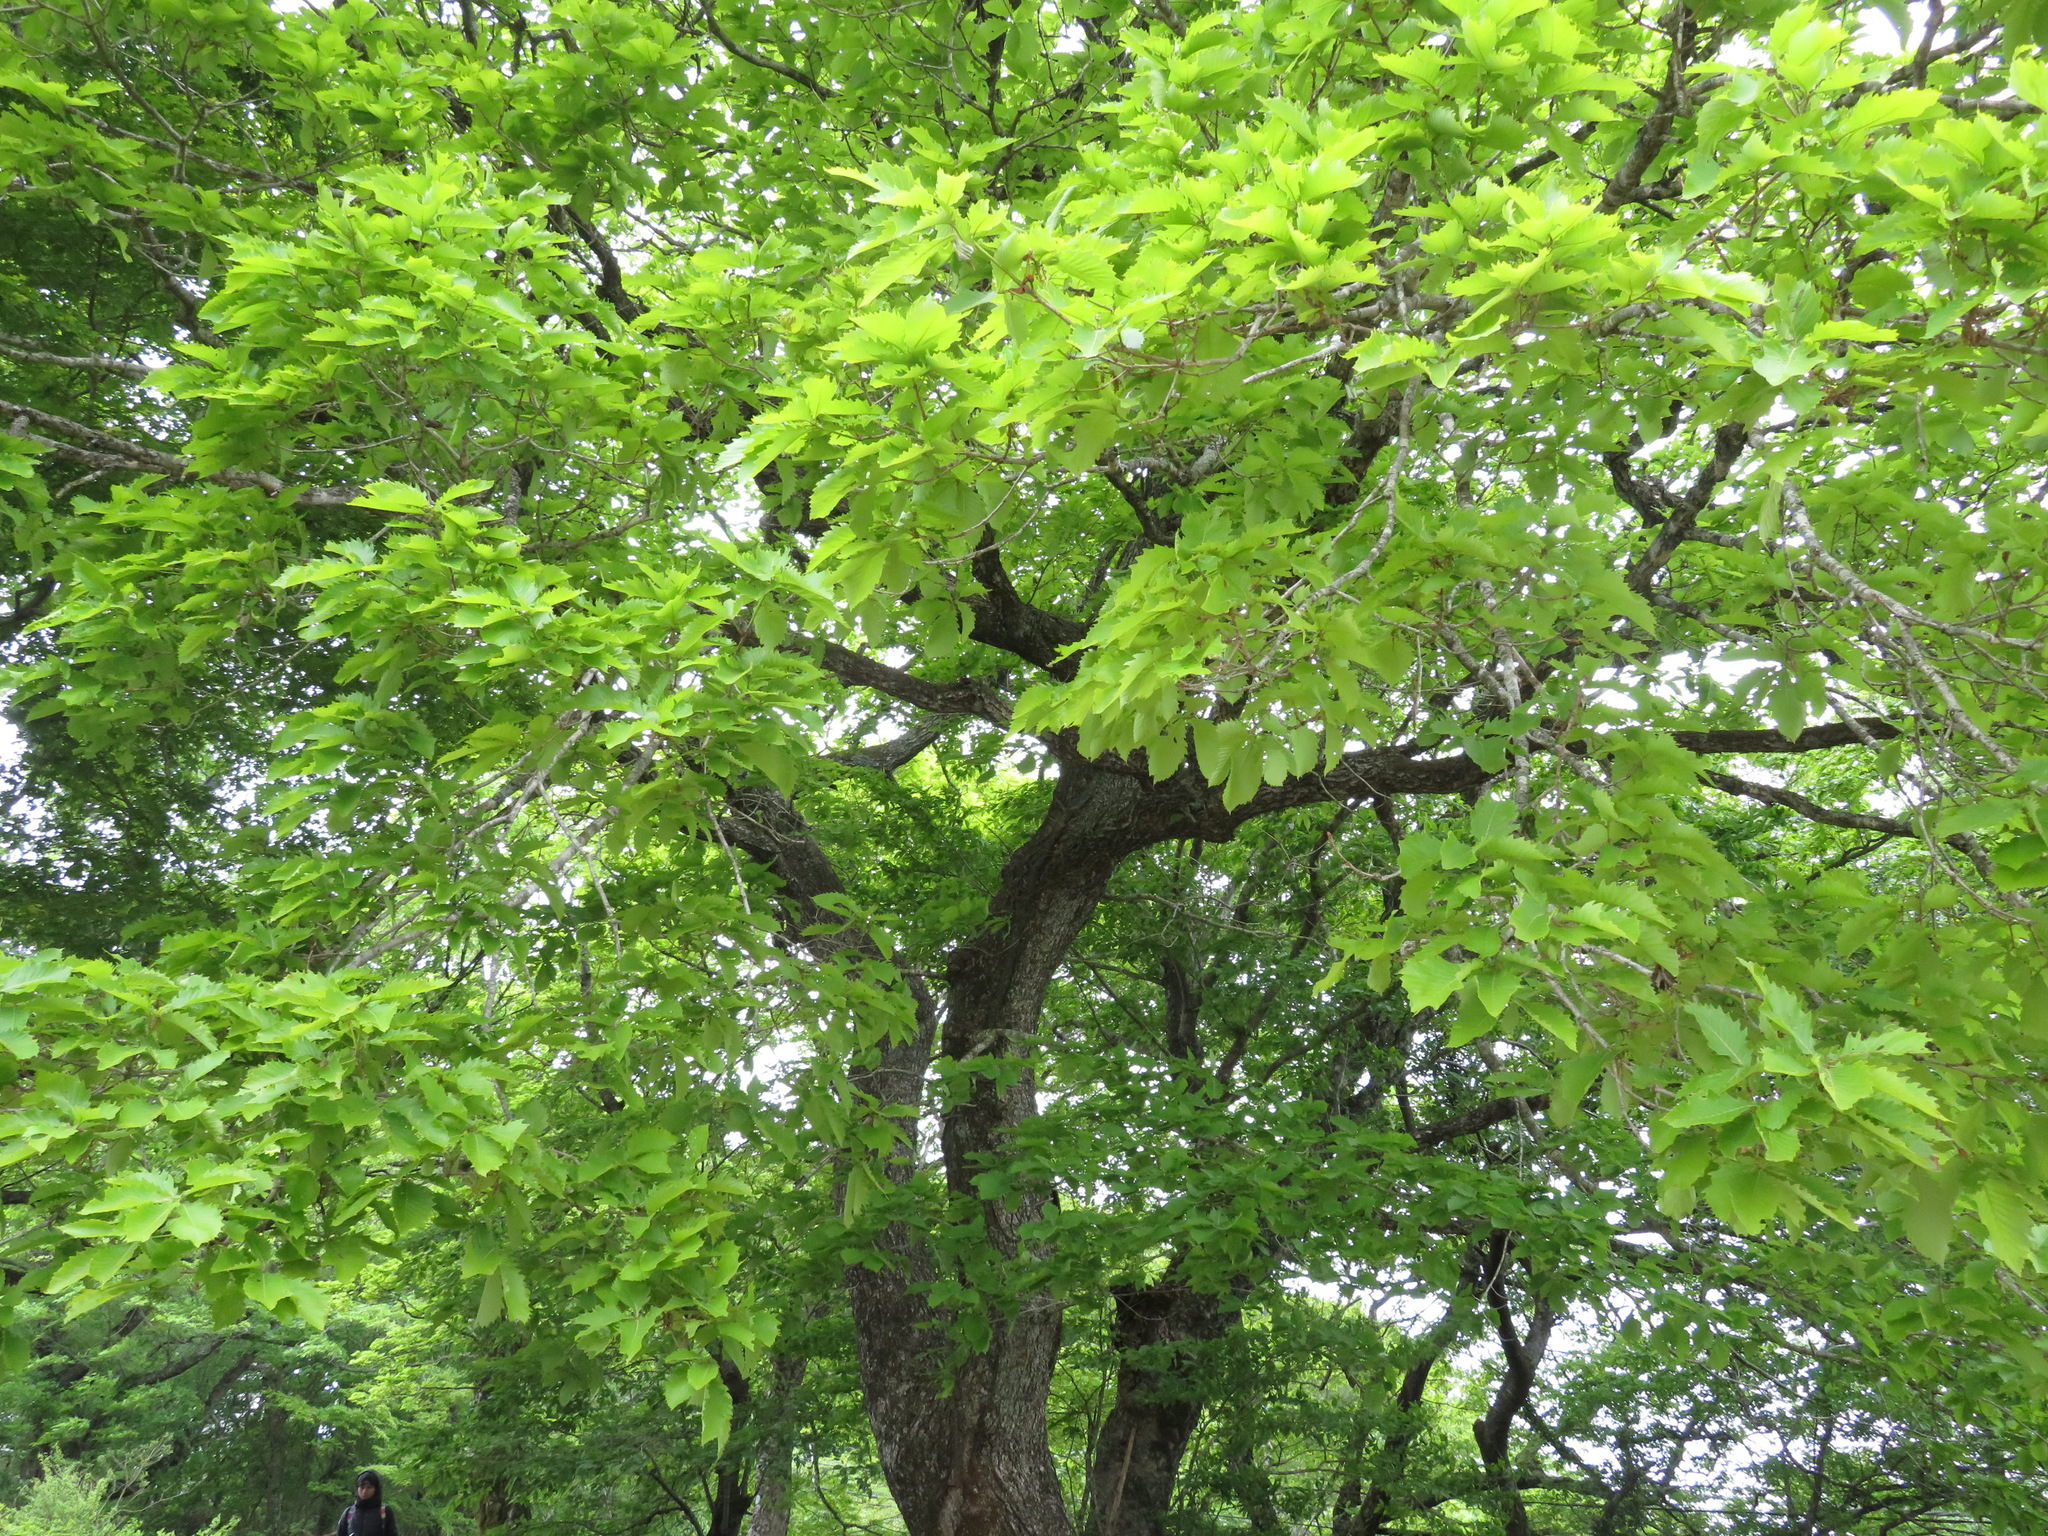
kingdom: Plantae
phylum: Tracheophyta
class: Magnoliopsida
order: Fagales
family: Fagaceae
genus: Quercus
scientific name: Quercus crispula
